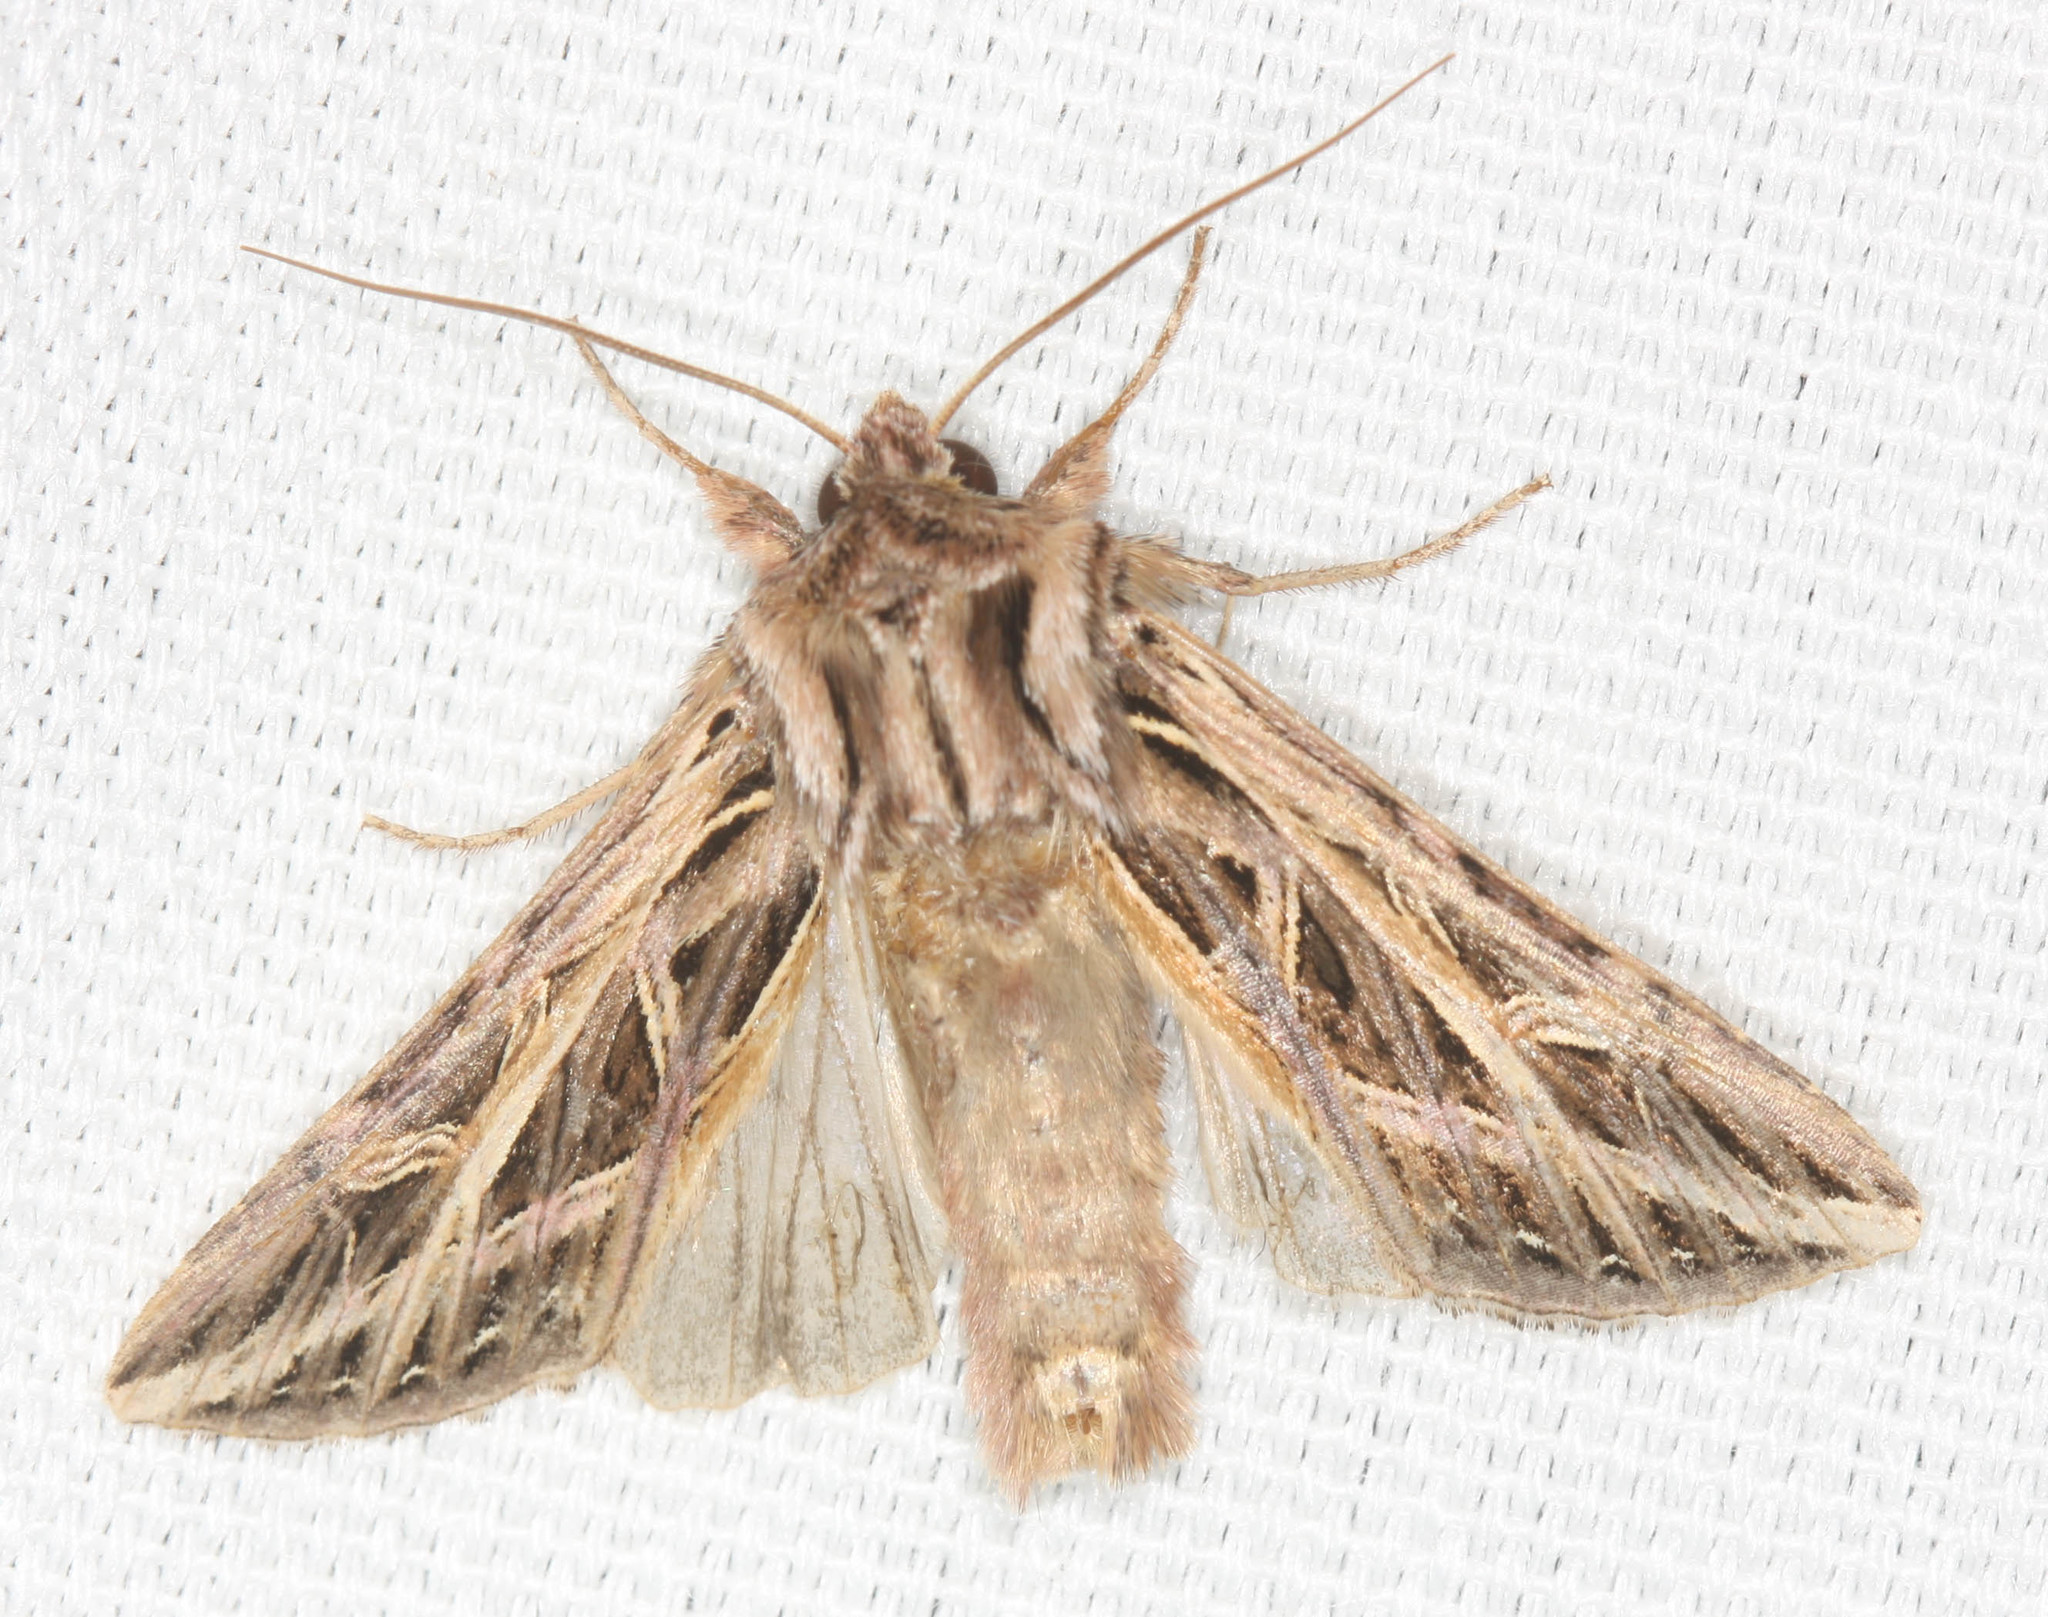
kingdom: Animalia
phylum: Arthropoda
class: Insecta
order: Lepidoptera
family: Noctuidae
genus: Dargida
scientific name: Dargida procinctus
